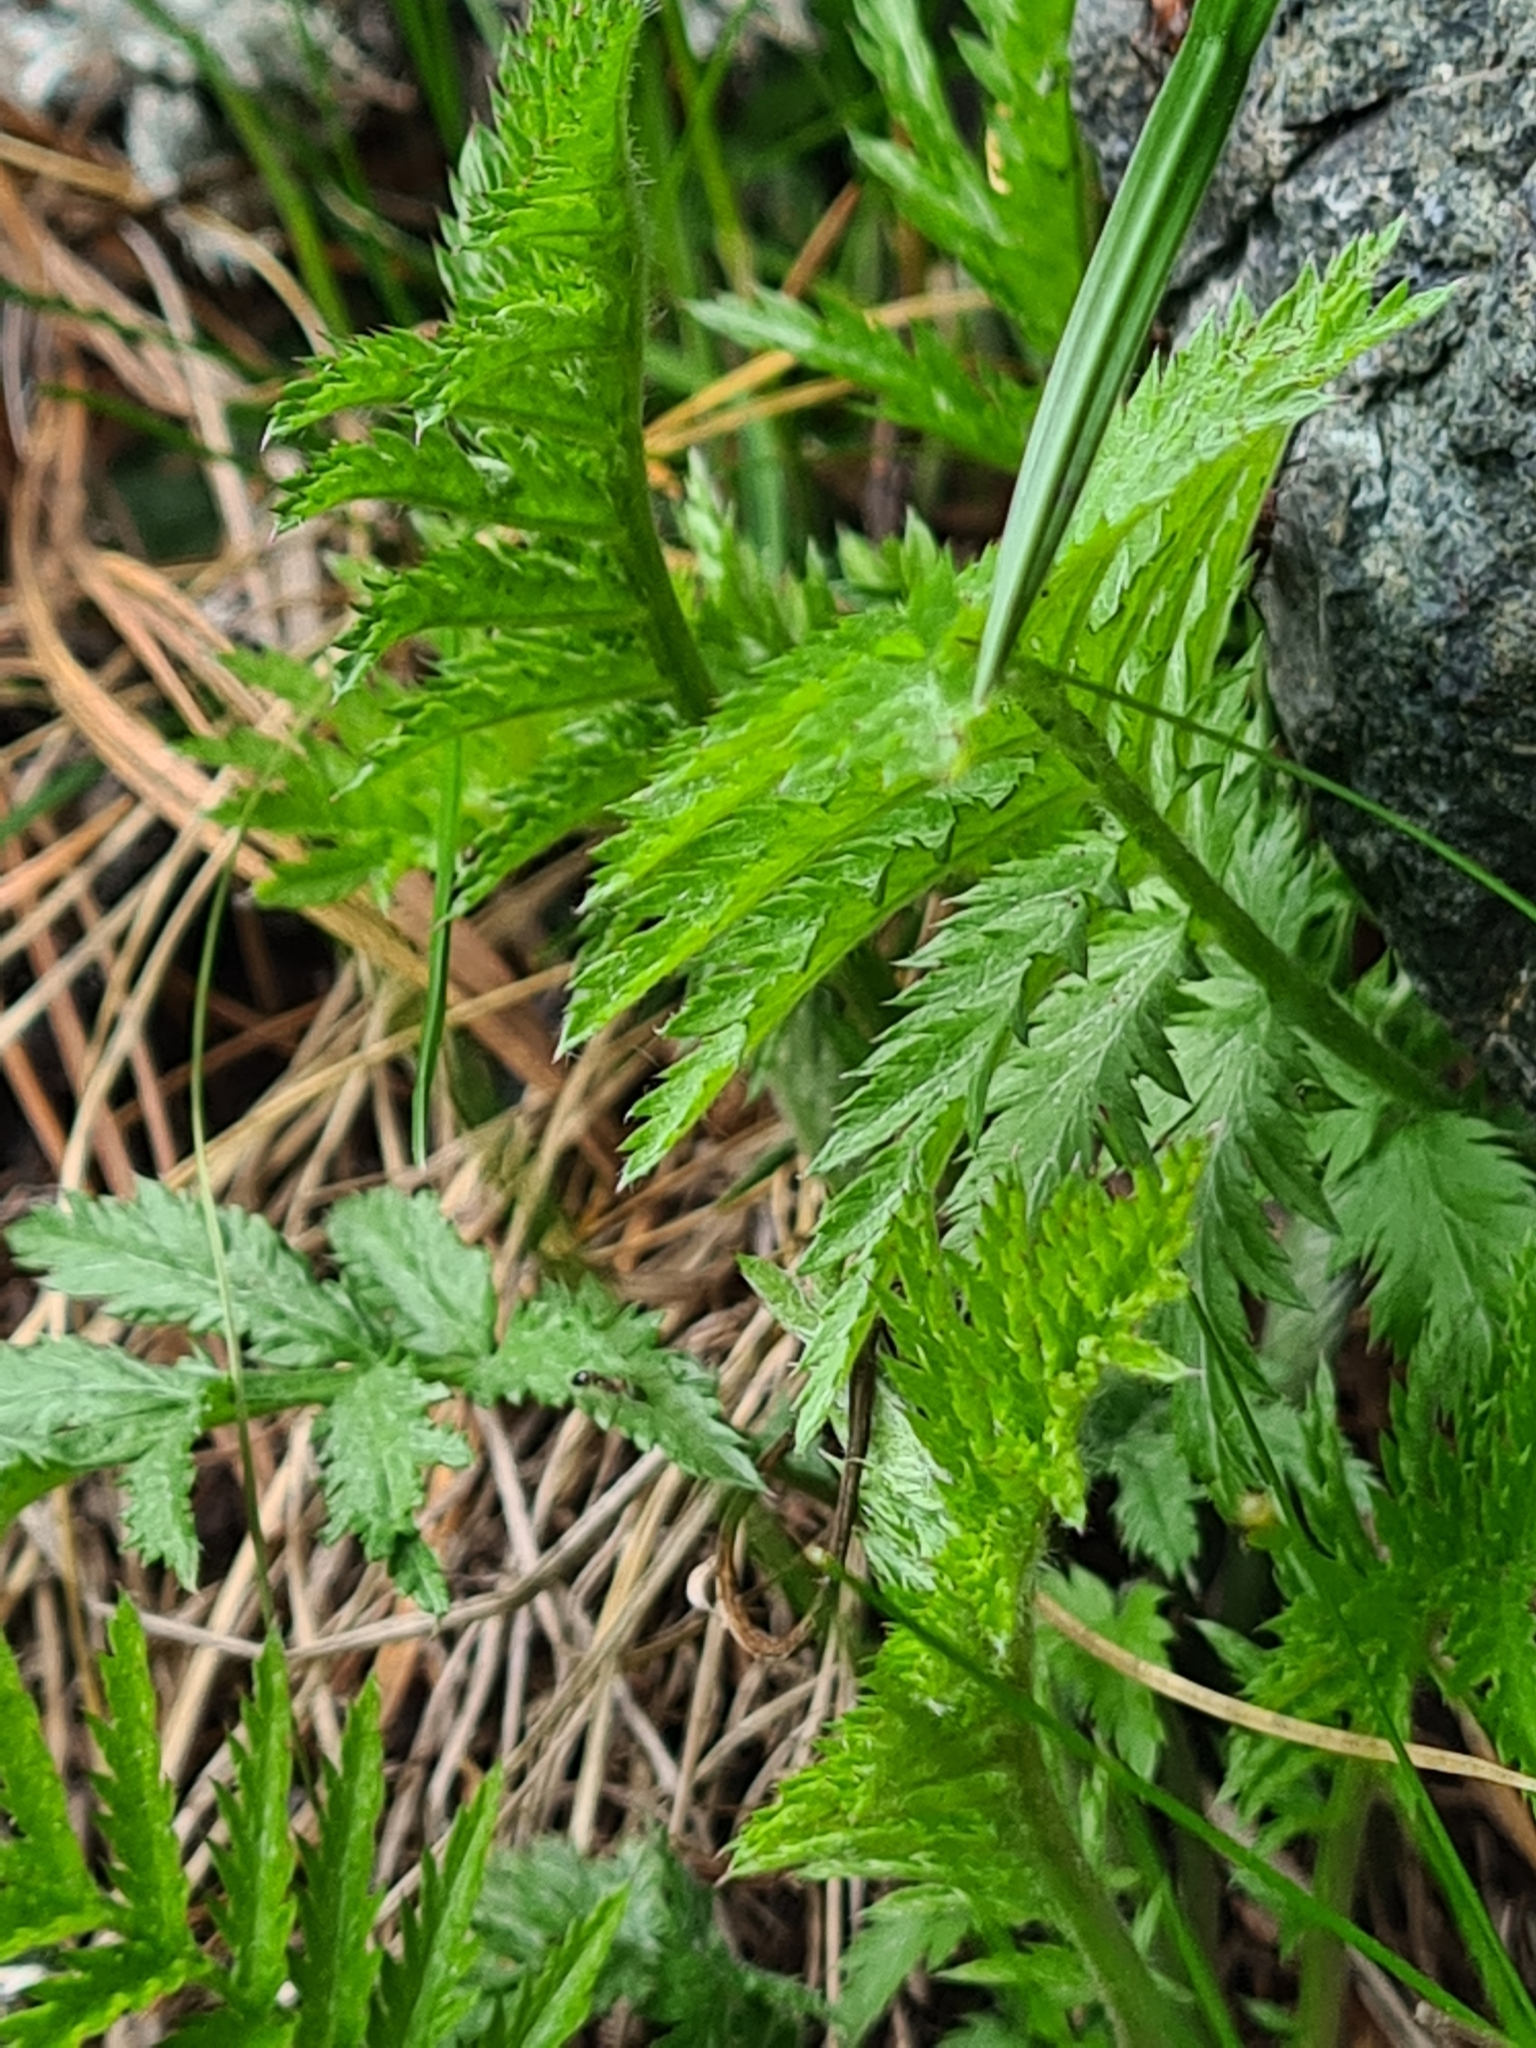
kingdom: Plantae
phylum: Tracheophyta
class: Magnoliopsida
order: Asterales
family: Asteraceae
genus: Tanacetum
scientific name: Tanacetum vulgare
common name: Common tansy
